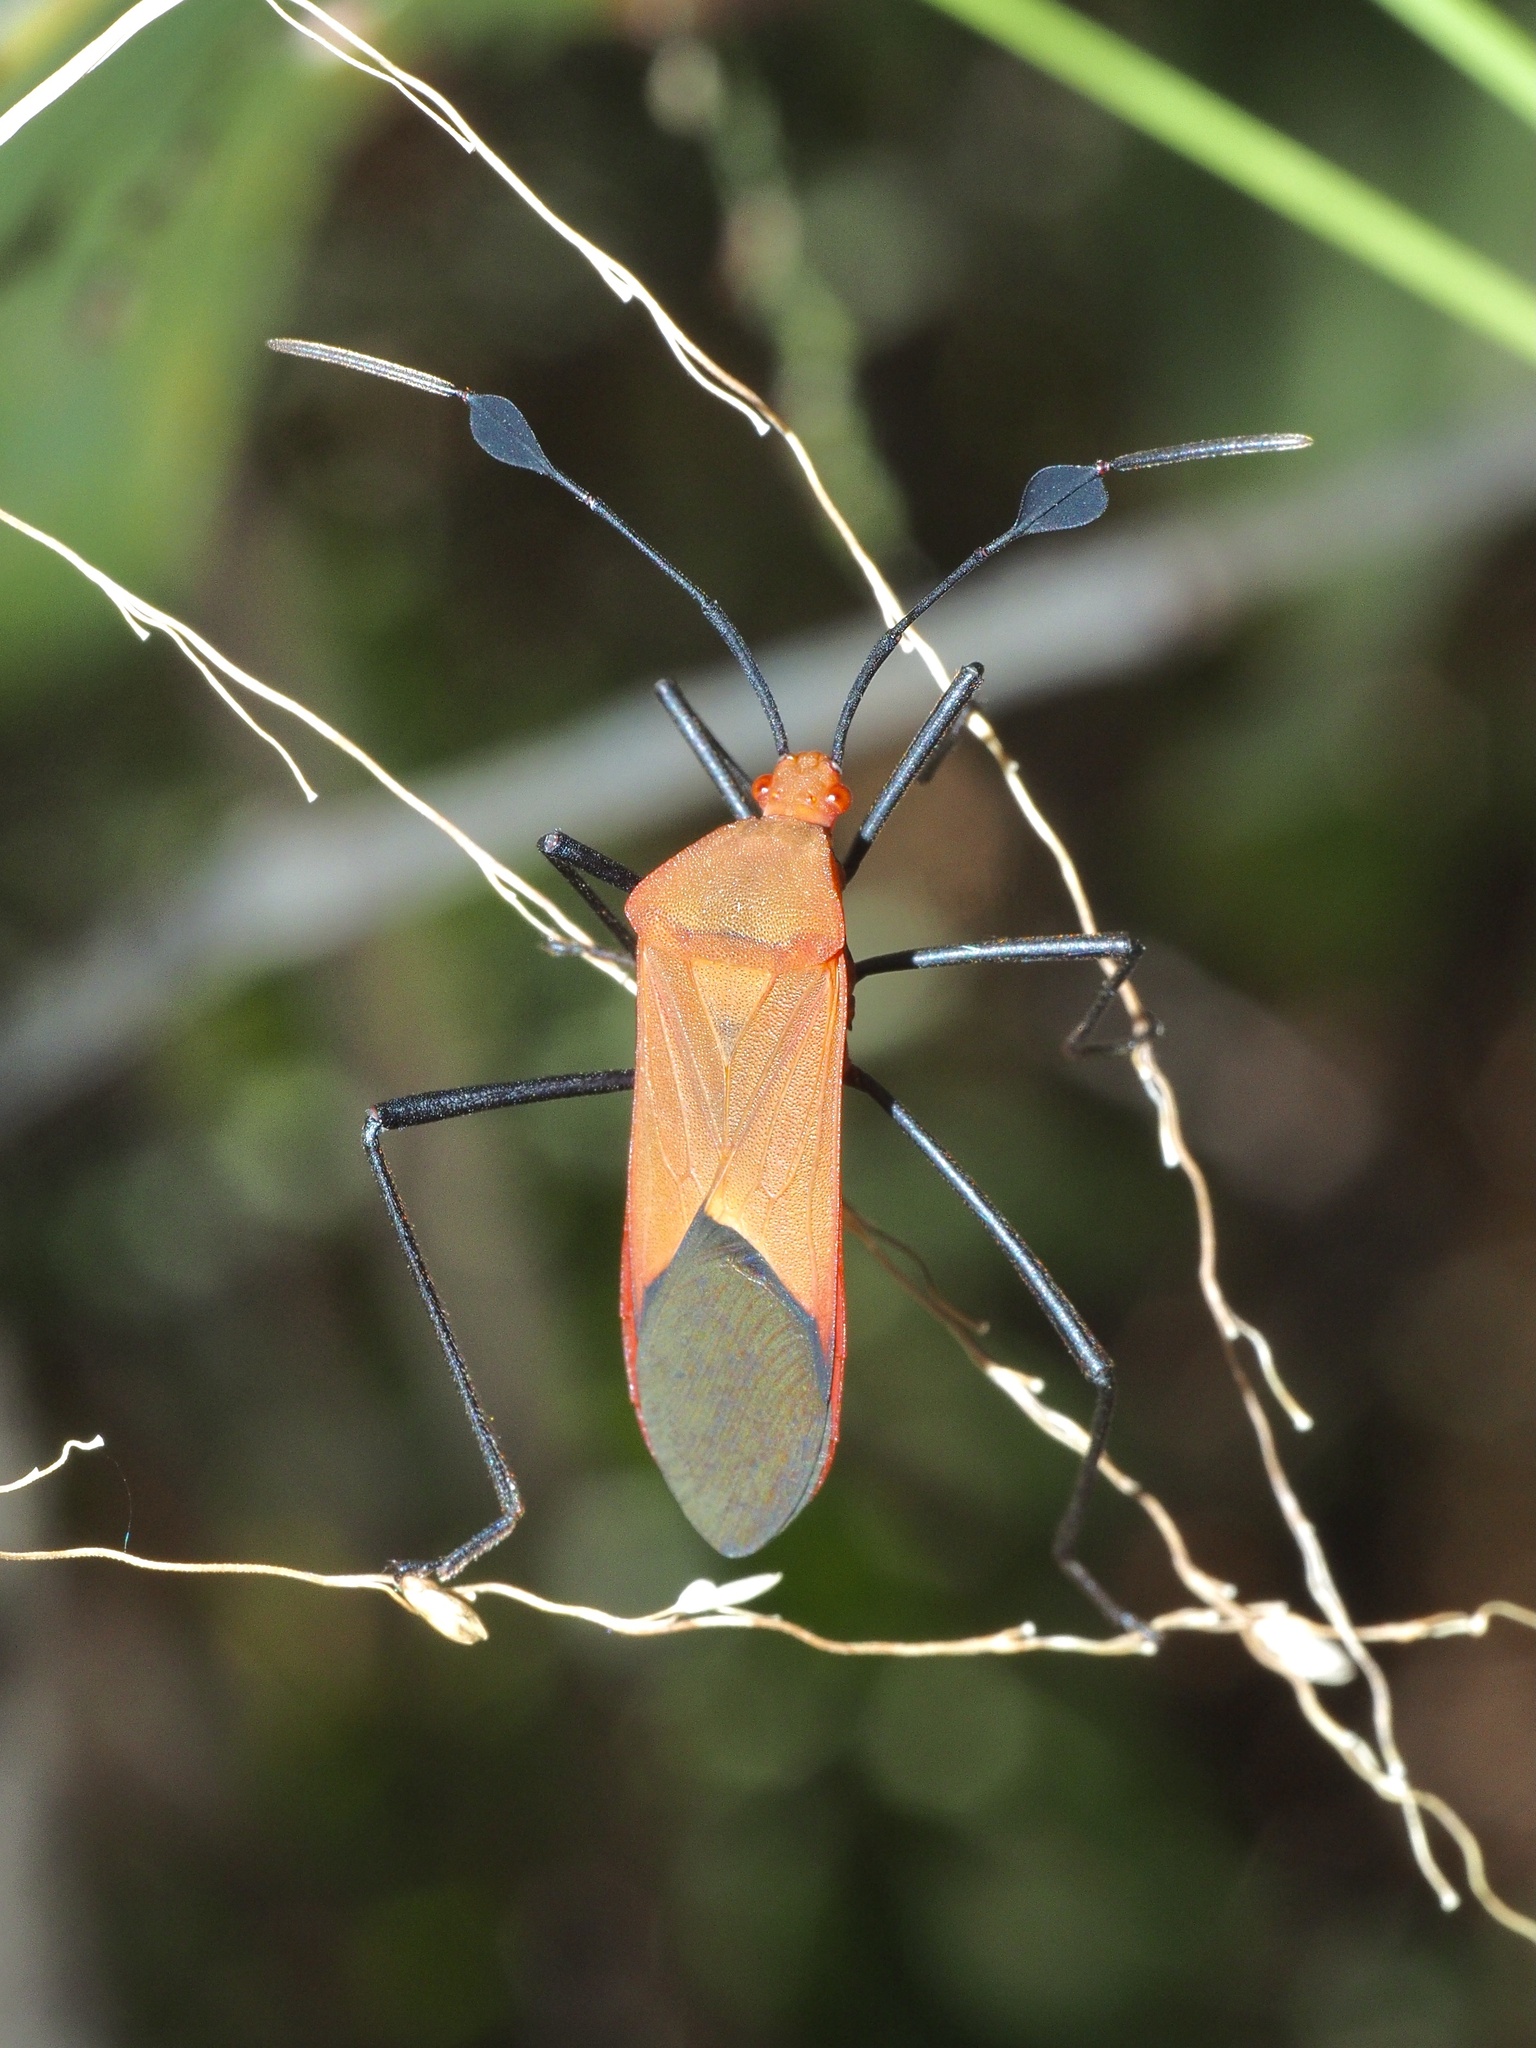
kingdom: Animalia
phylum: Arthropoda
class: Insecta
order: Hemiptera
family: Coreidae
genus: Galaesus
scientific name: Galaesus hasticornis
